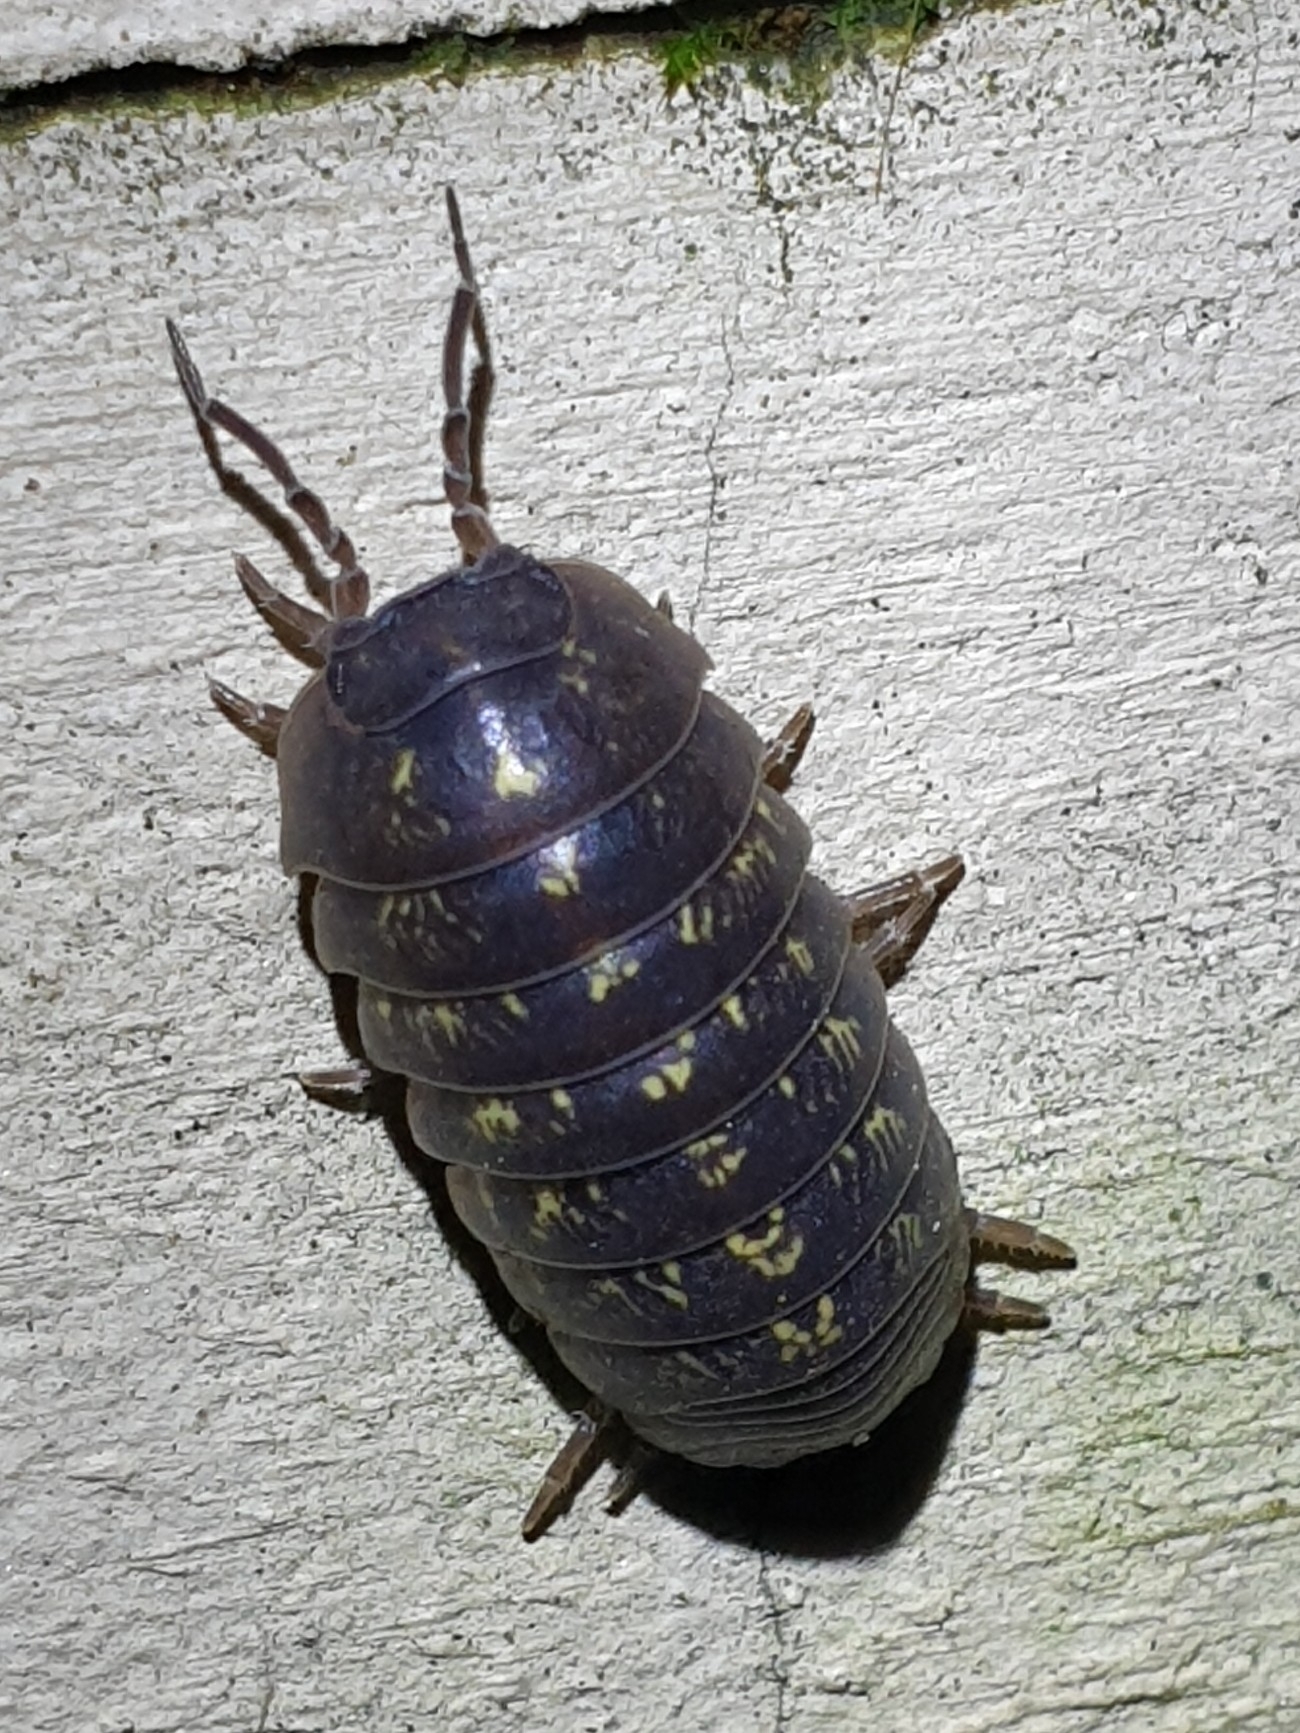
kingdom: Animalia
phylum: Arthropoda
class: Malacostraca
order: Isopoda
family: Armadillidiidae
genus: Armadillidium
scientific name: Armadillidium vulgare
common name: Common pill woodlouse
